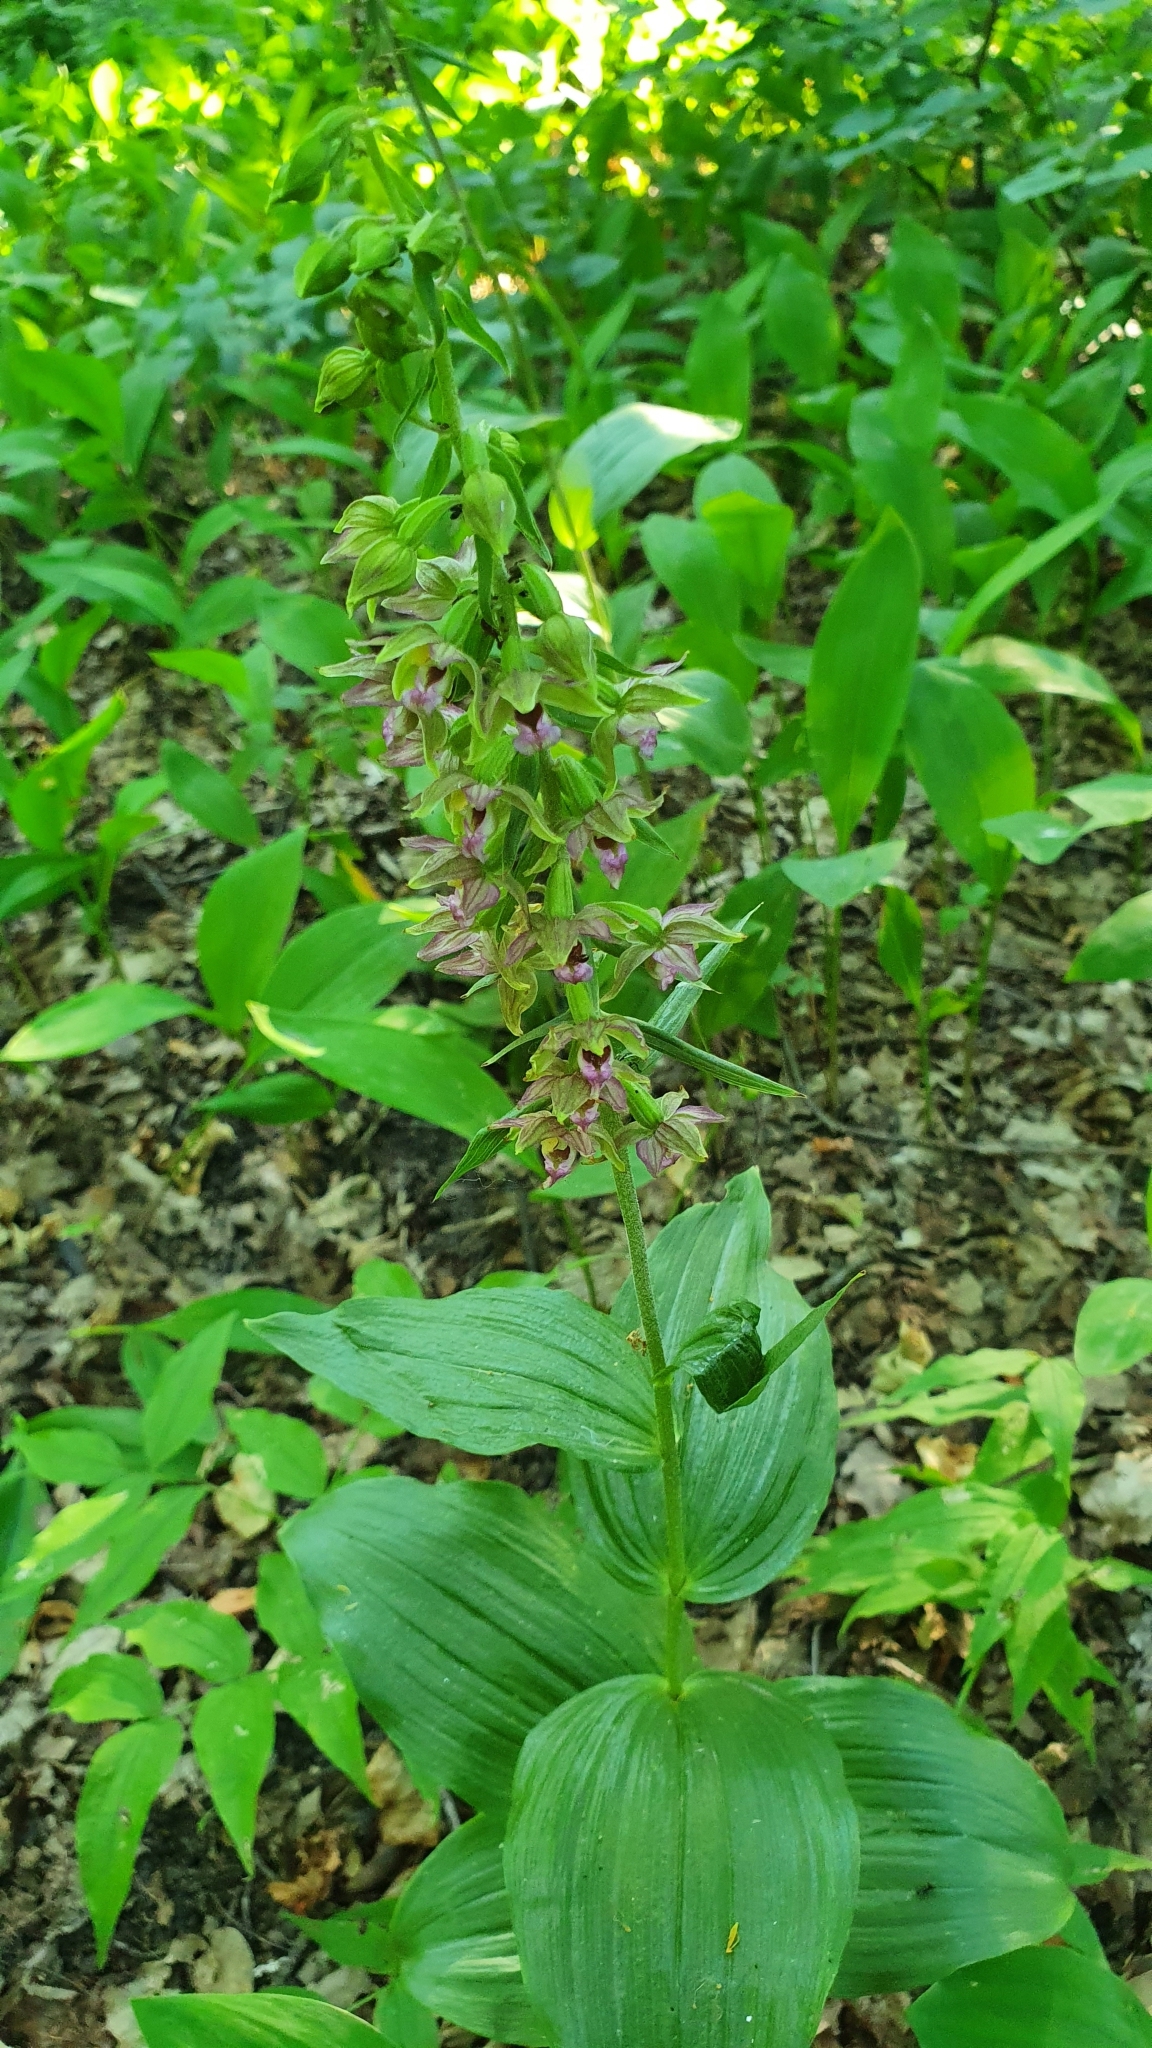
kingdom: Plantae
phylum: Tracheophyta
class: Liliopsida
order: Asparagales
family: Orchidaceae
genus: Epipactis
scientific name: Epipactis helleborine
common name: Broad-leaved helleborine
